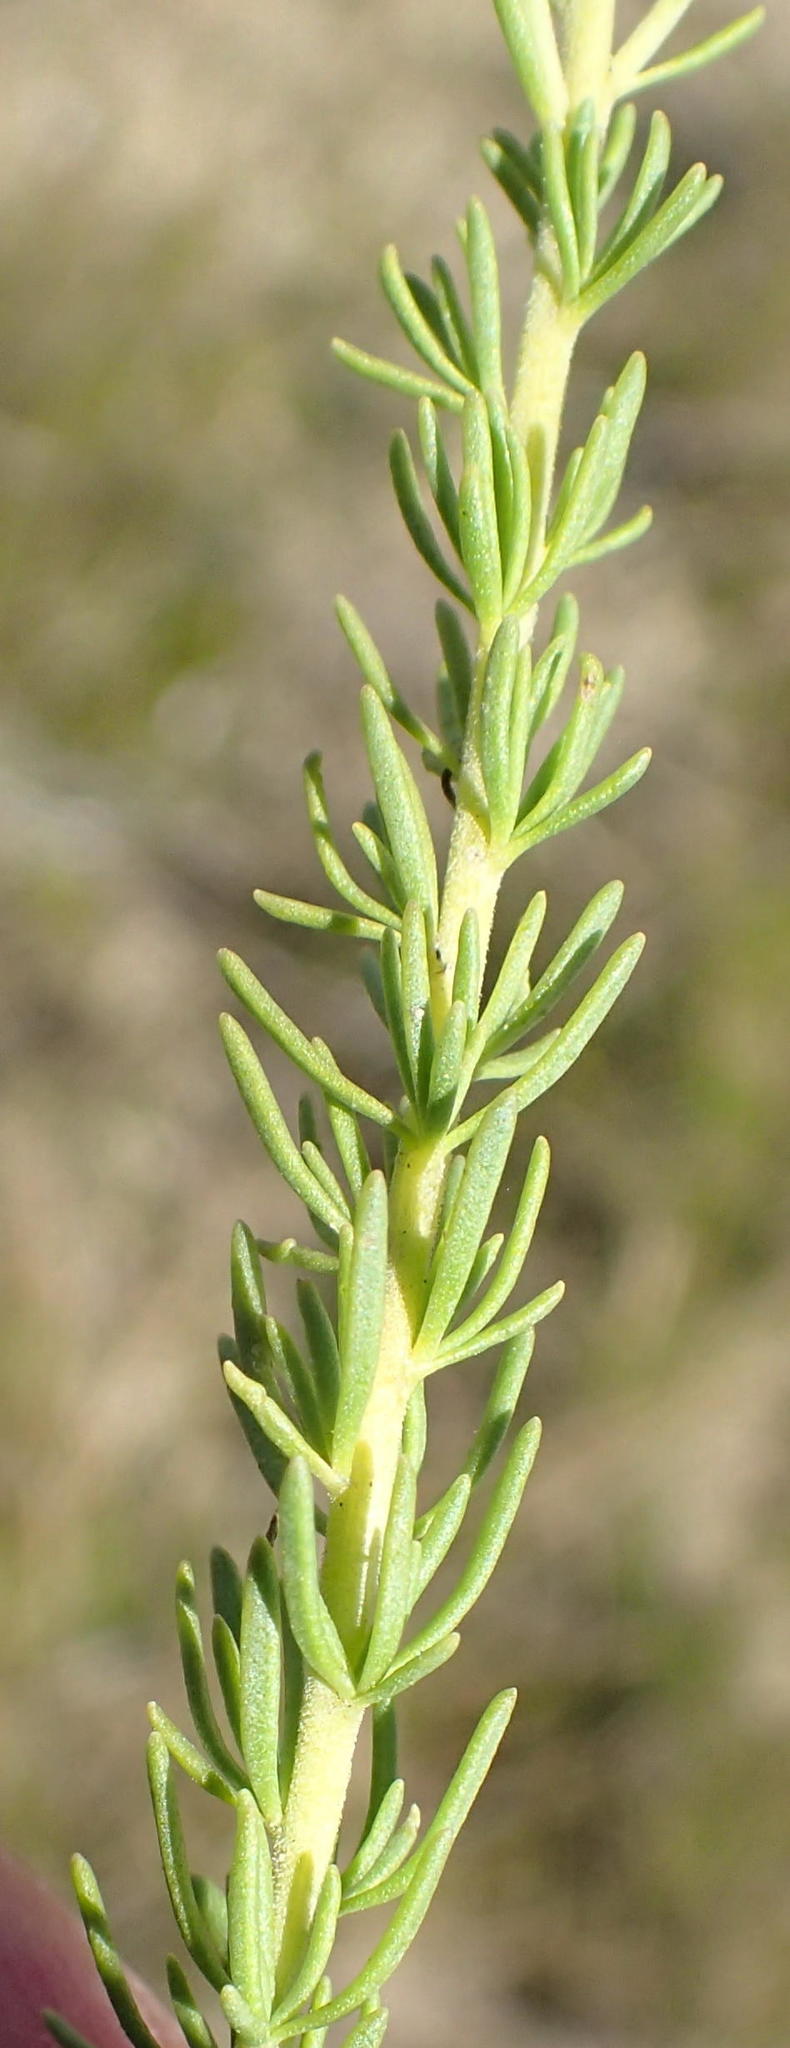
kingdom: Plantae
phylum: Tracheophyta
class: Magnoliopsida
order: Lamiales
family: Scrophulariaceae
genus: Selago
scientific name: Selago dolosa
